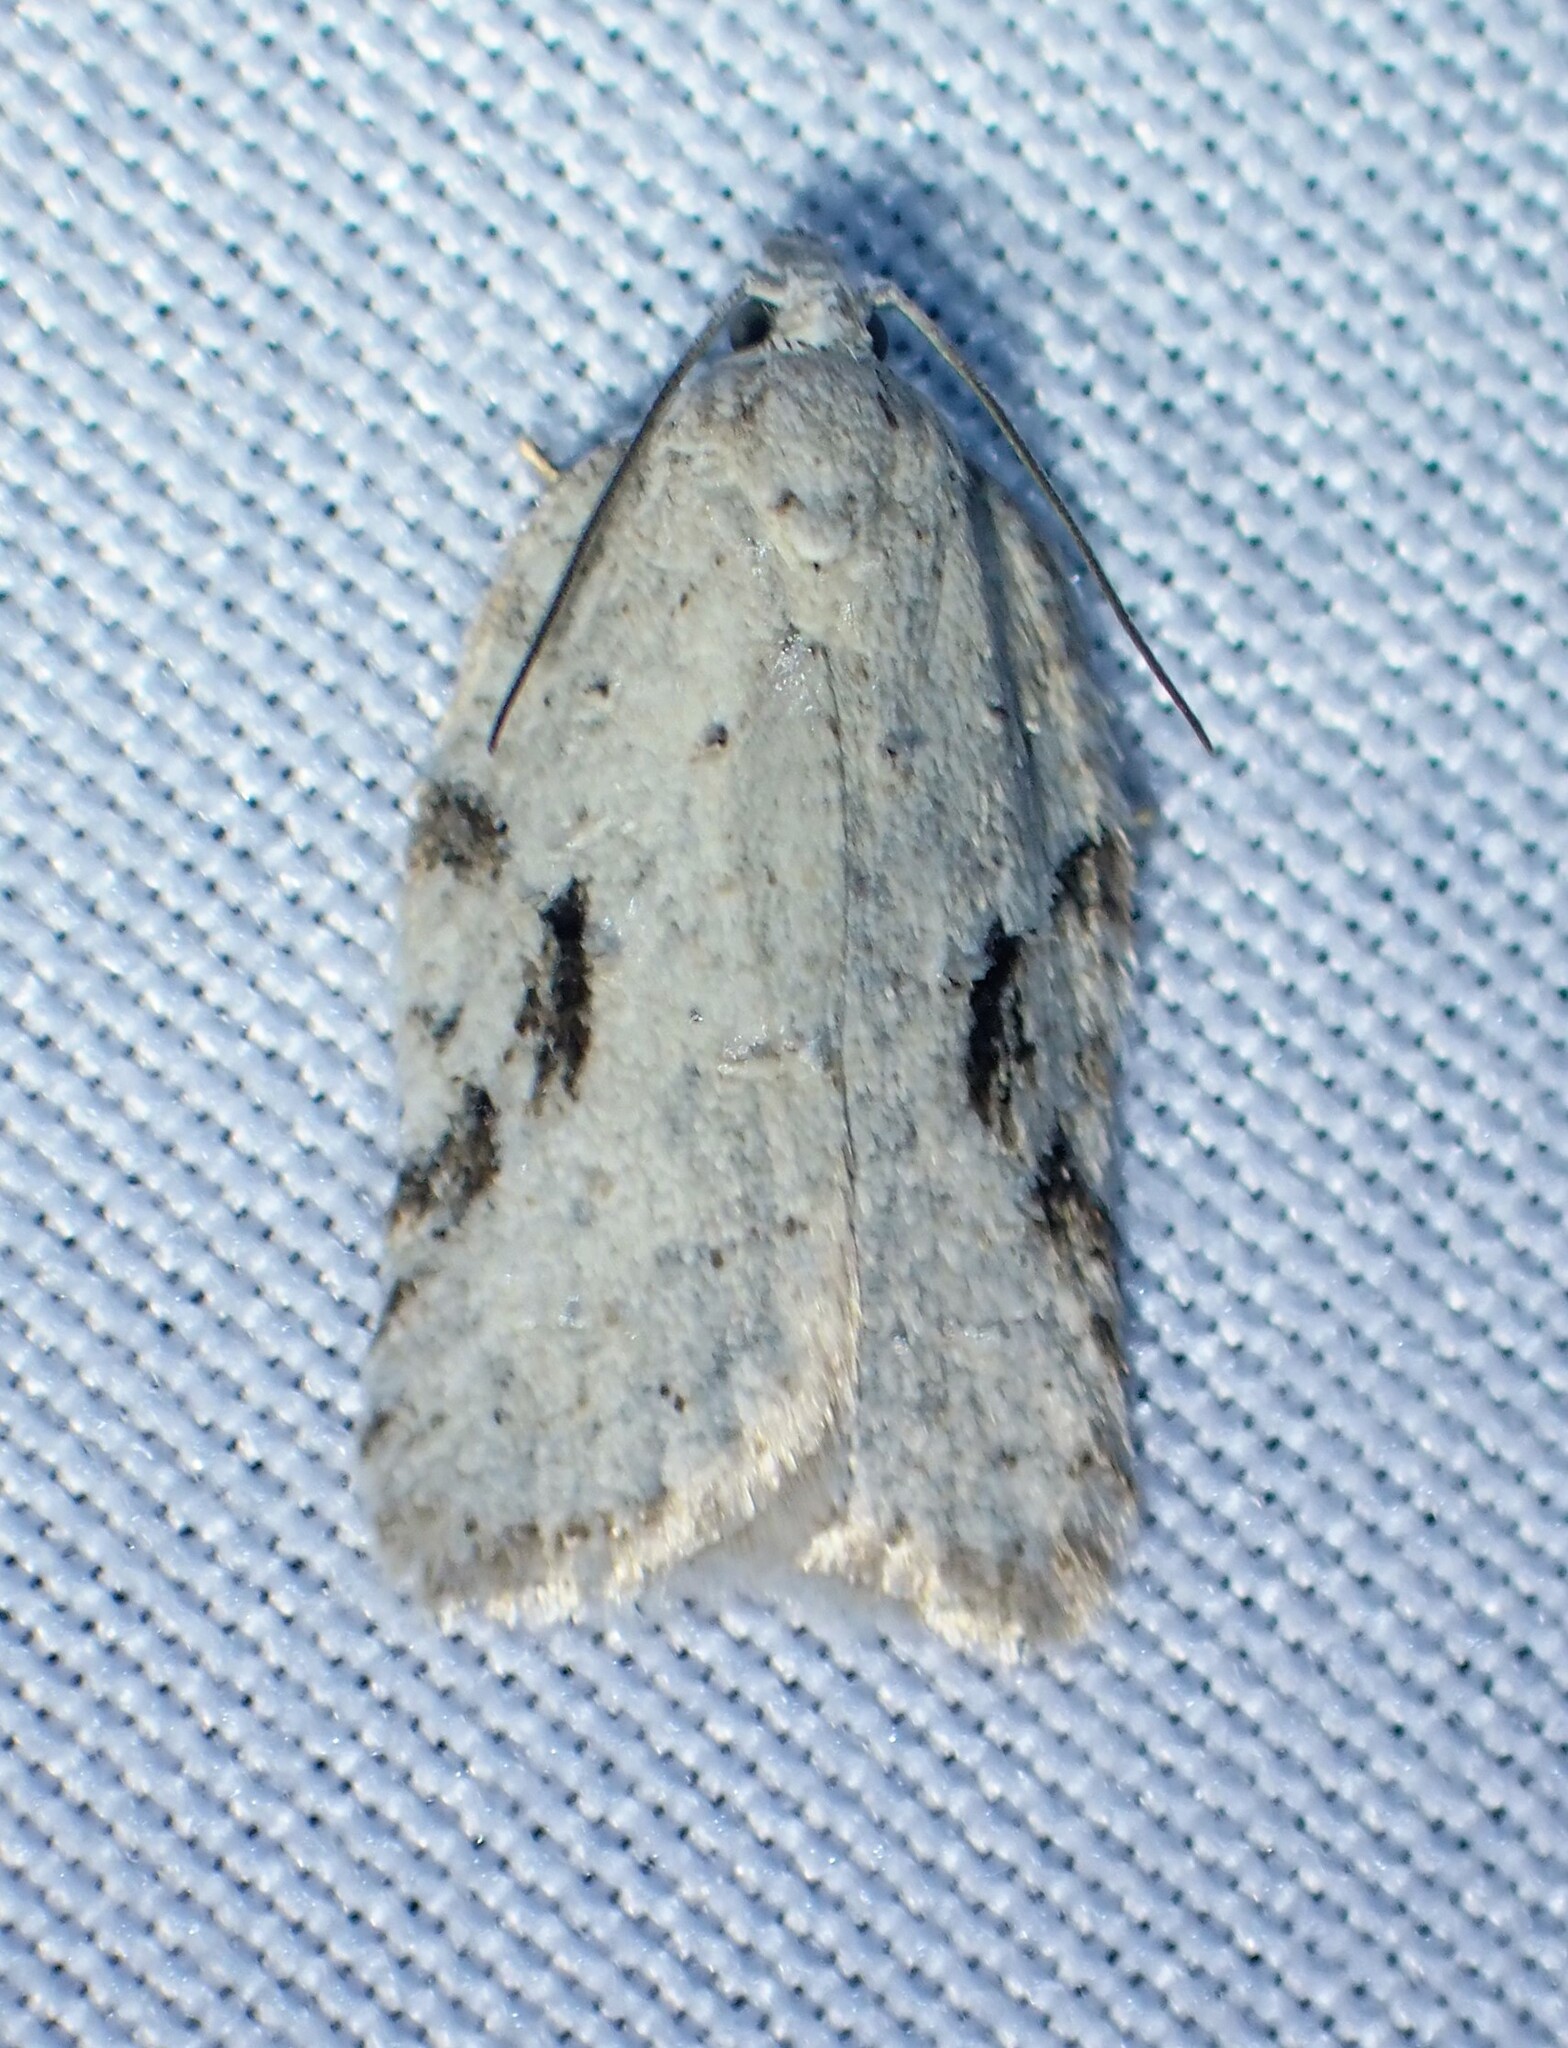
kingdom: Animalia
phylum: Arthropoda
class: Insecta
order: Lepidoptera
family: Tortricidae
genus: Acleris
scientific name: Acleris placidana
